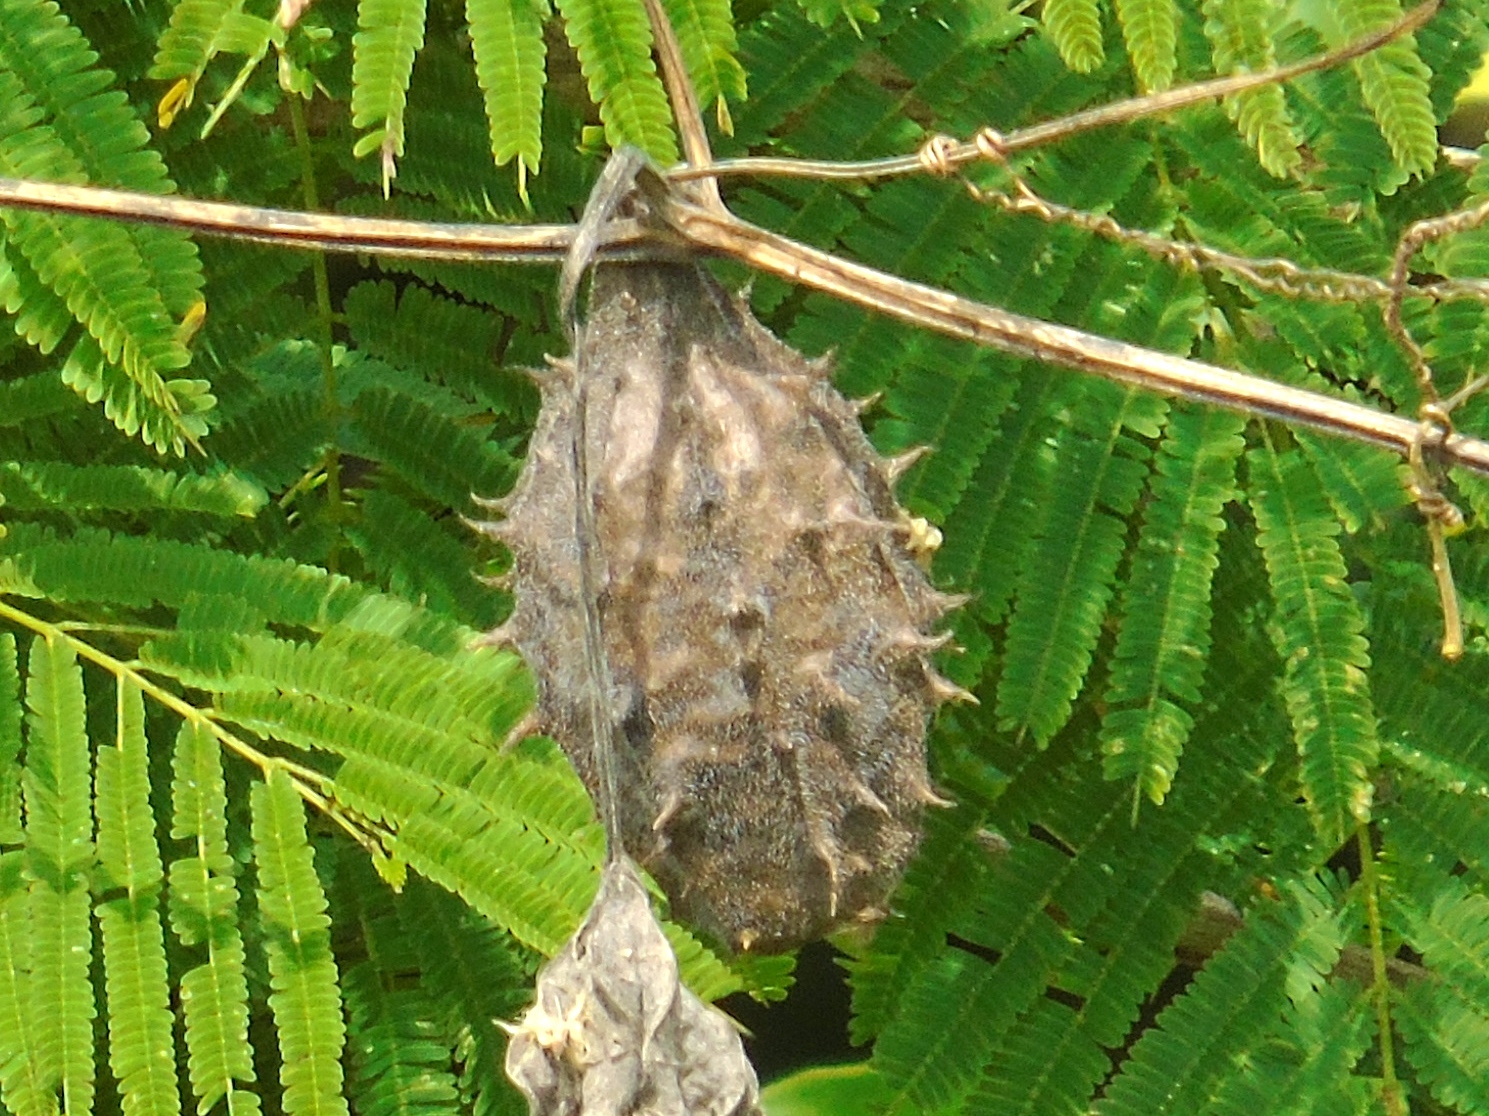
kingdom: Plantae
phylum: Tracheophyta
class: Magnoliopsida
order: Cucurbitales
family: Cucurbitaceae
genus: Luffa
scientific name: Luffa
